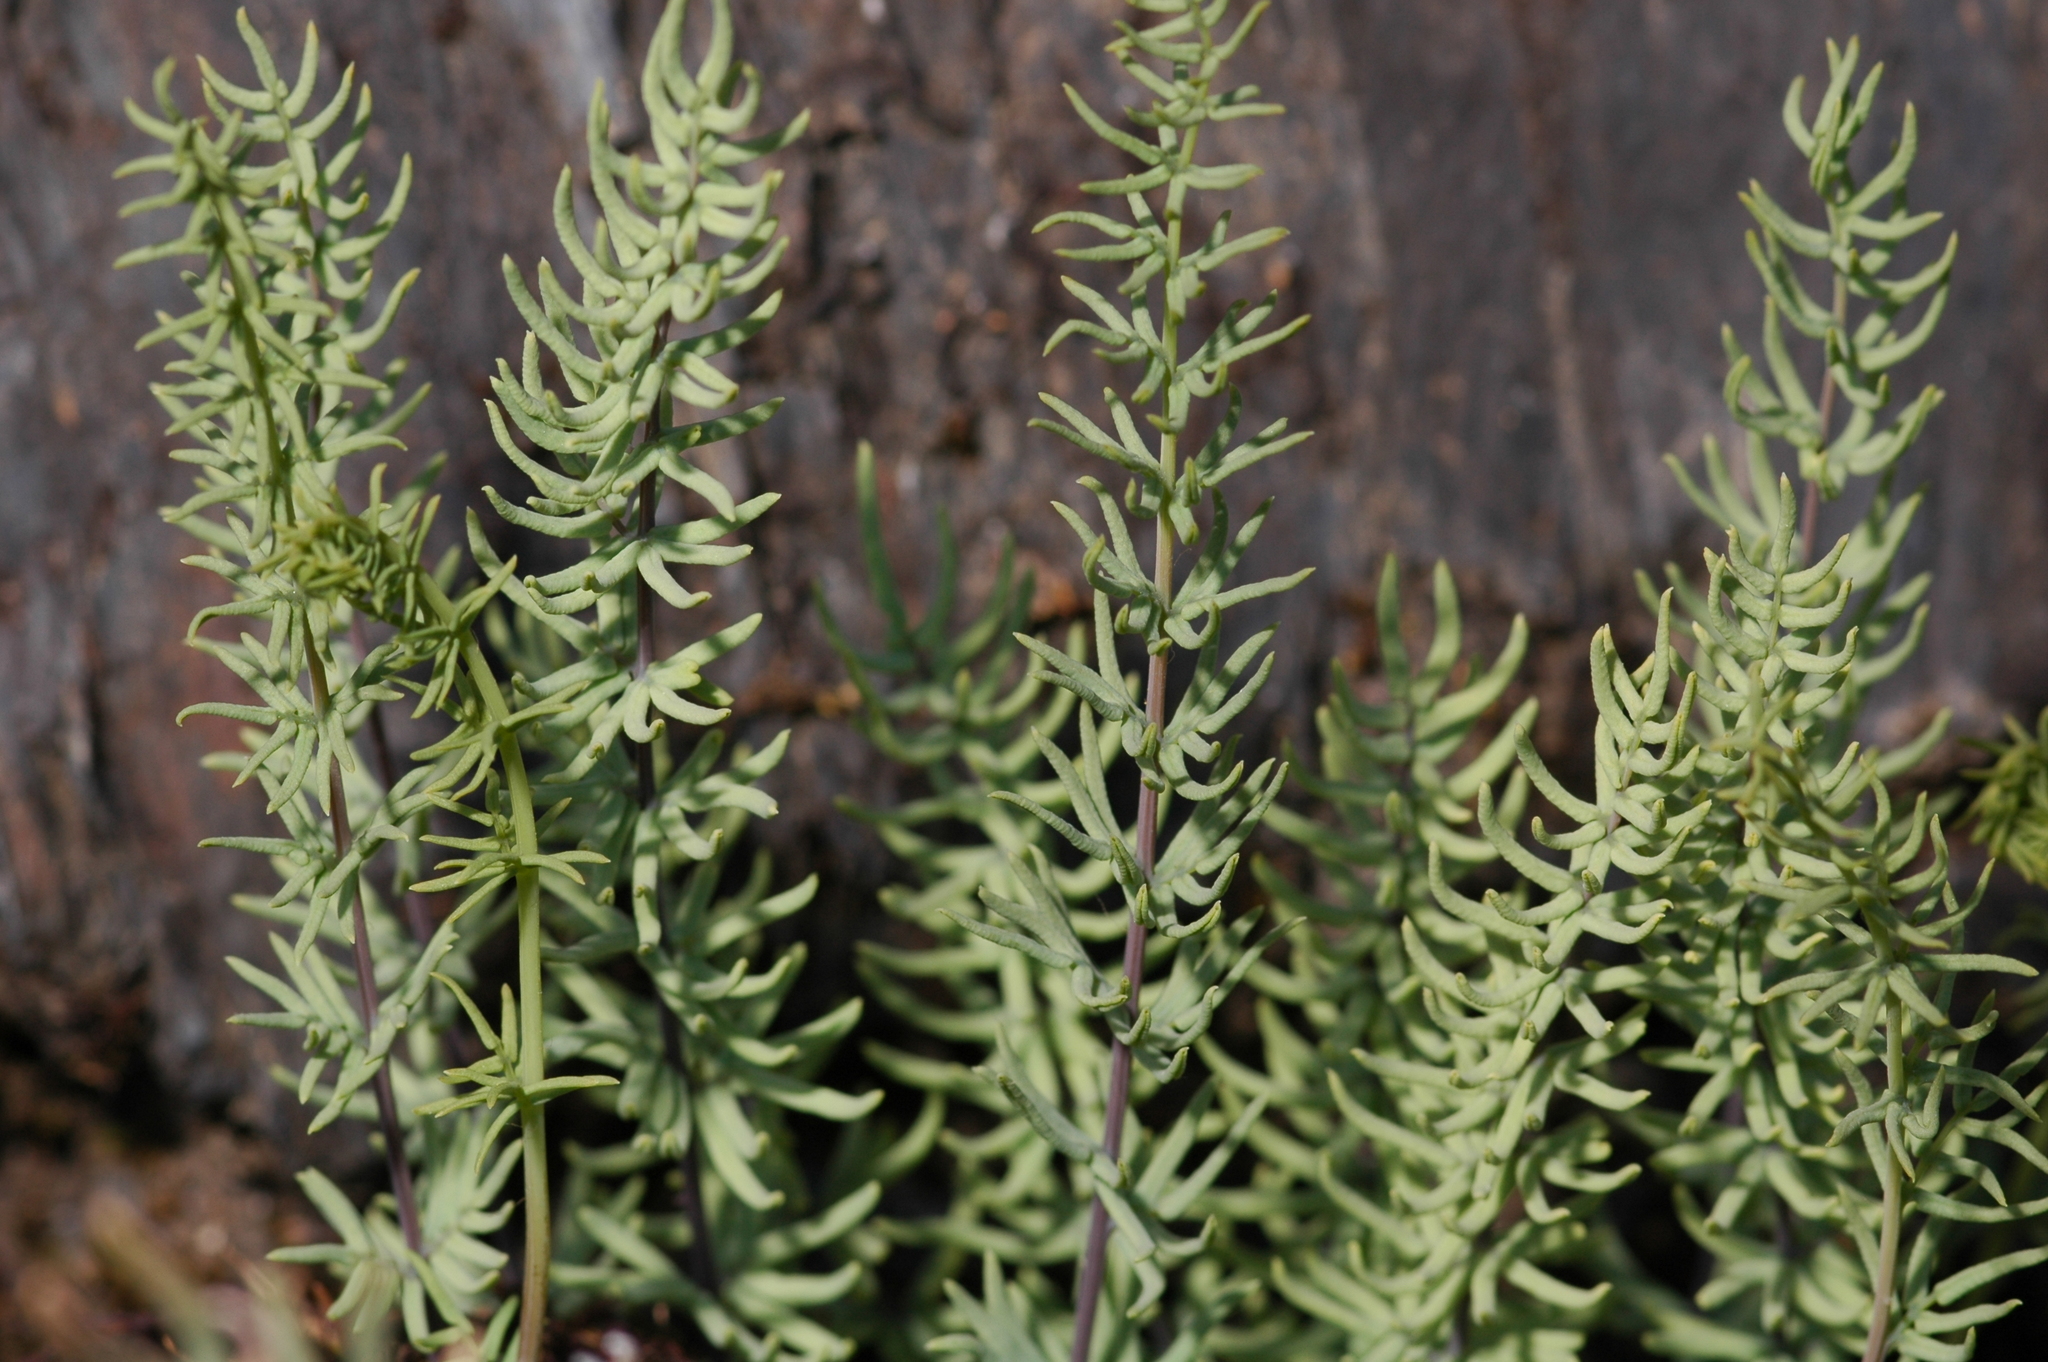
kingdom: Plantae
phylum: Tracheophyta
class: Polypodiopsida
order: Polypodiales
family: Pteridaceae
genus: Pellaea
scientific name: Pellaea brachyptera
